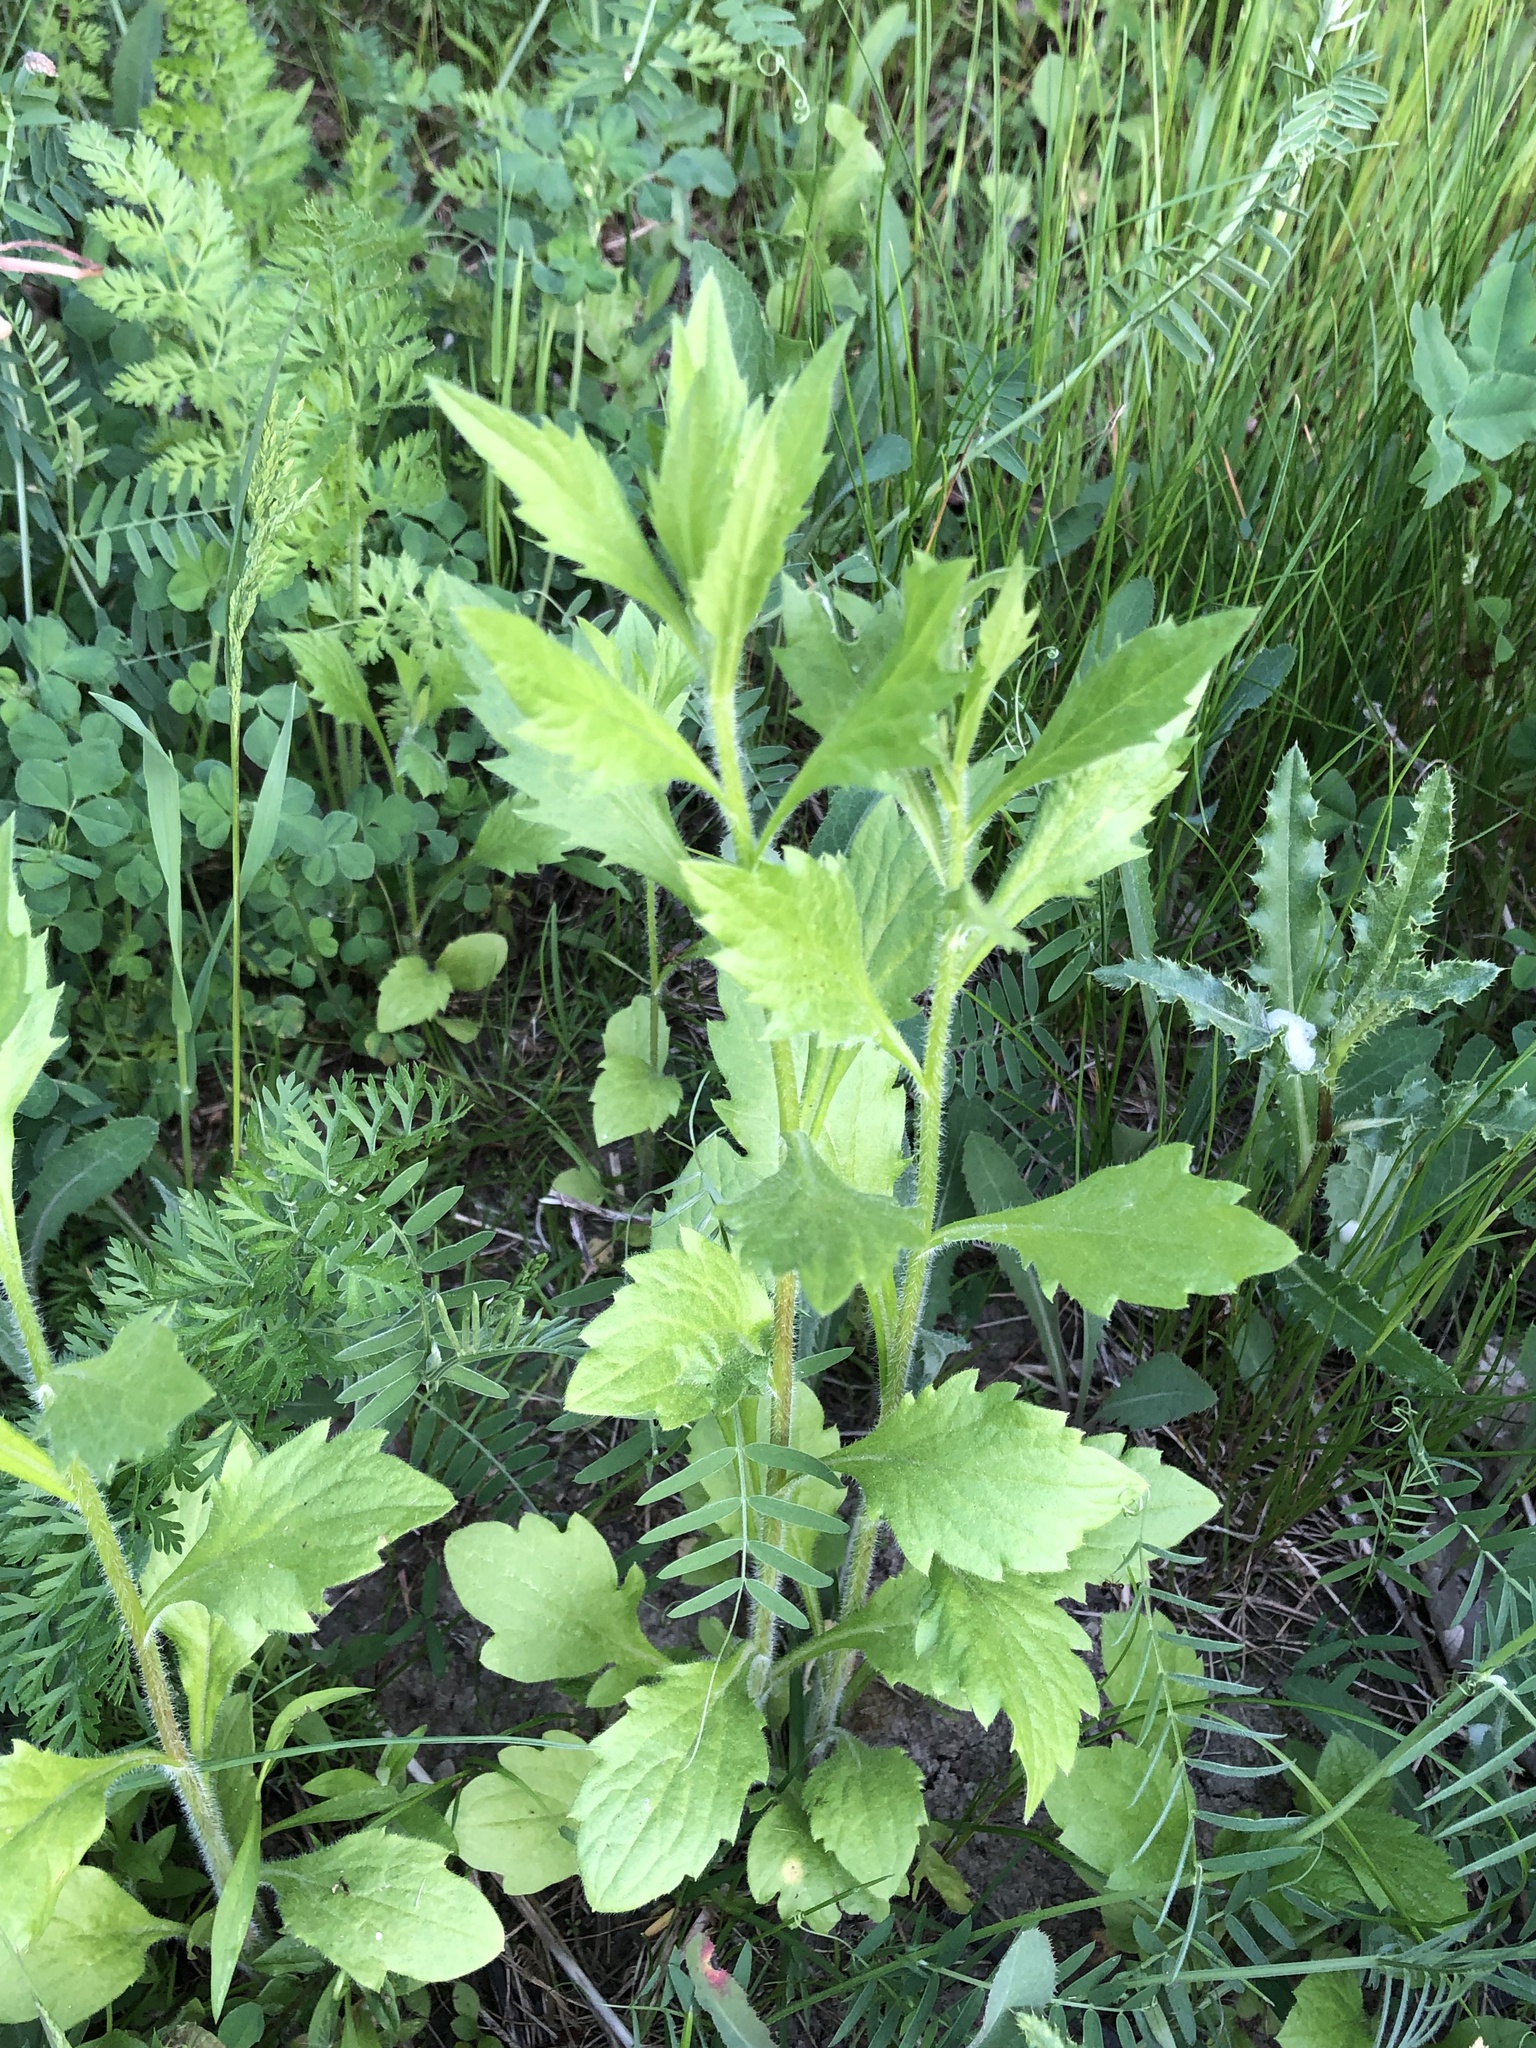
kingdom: Plantae
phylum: Tracheophyta
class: Magnoliopsida
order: Asterales
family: Asteraceae
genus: Erigeron
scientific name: Erigeron annuus
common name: Tall fleabane
